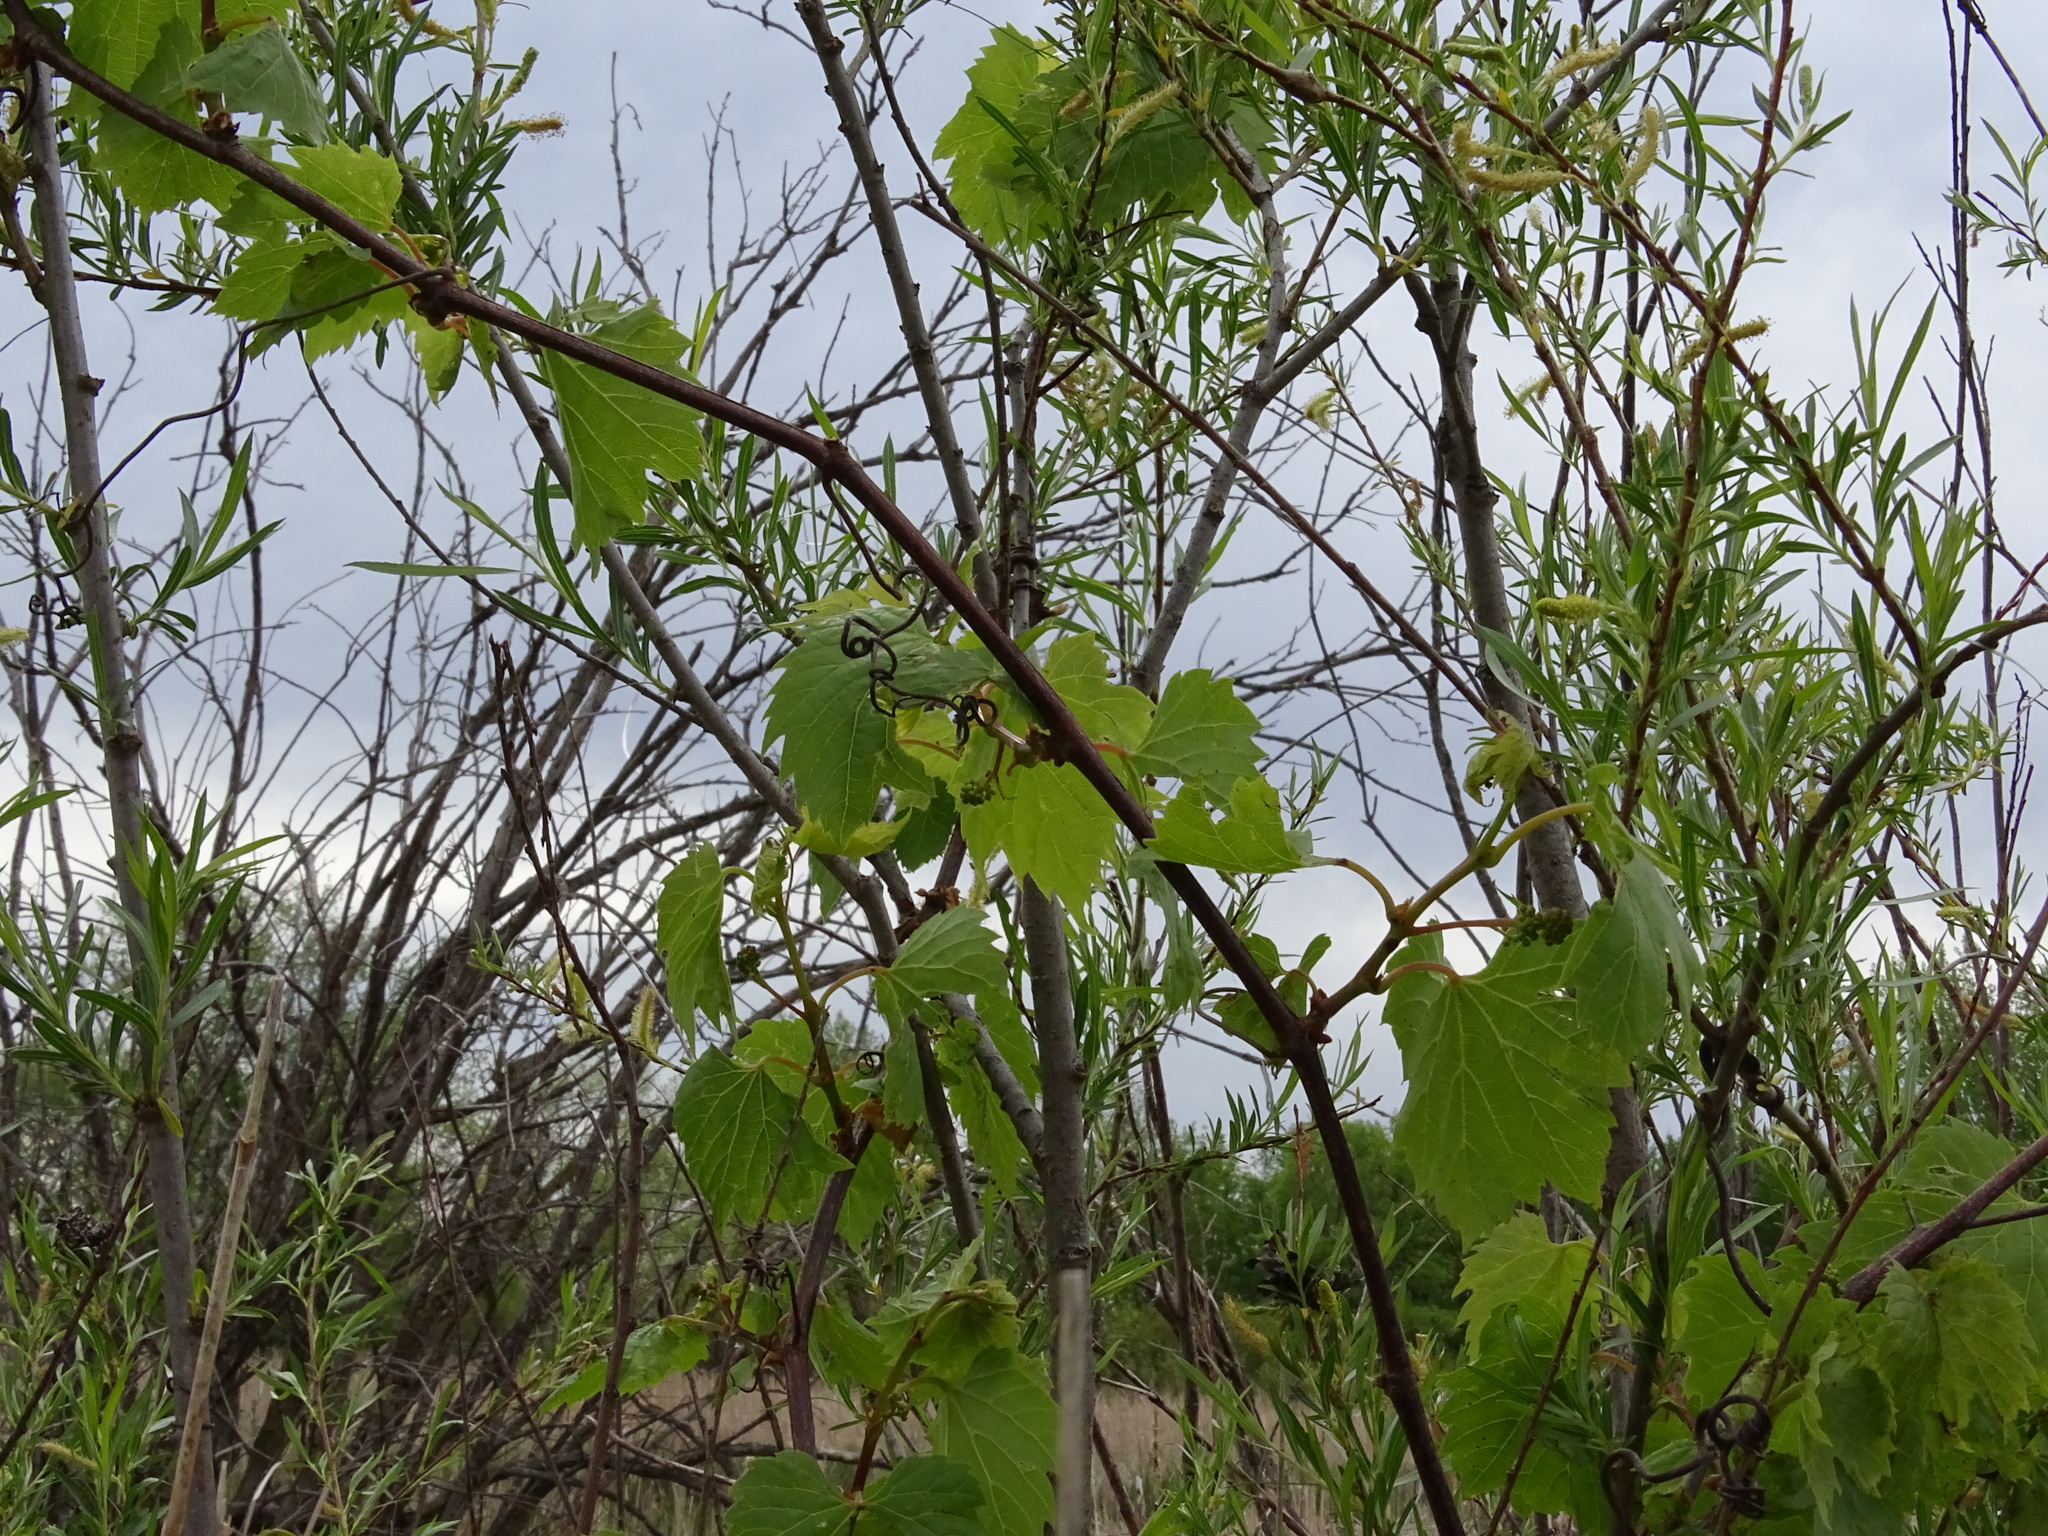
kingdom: Plantae
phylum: Tracheophyta
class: Magnoliopsida
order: Vitales
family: Vitaceae
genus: Vitis
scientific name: Vitis riparia
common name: Frost grape
